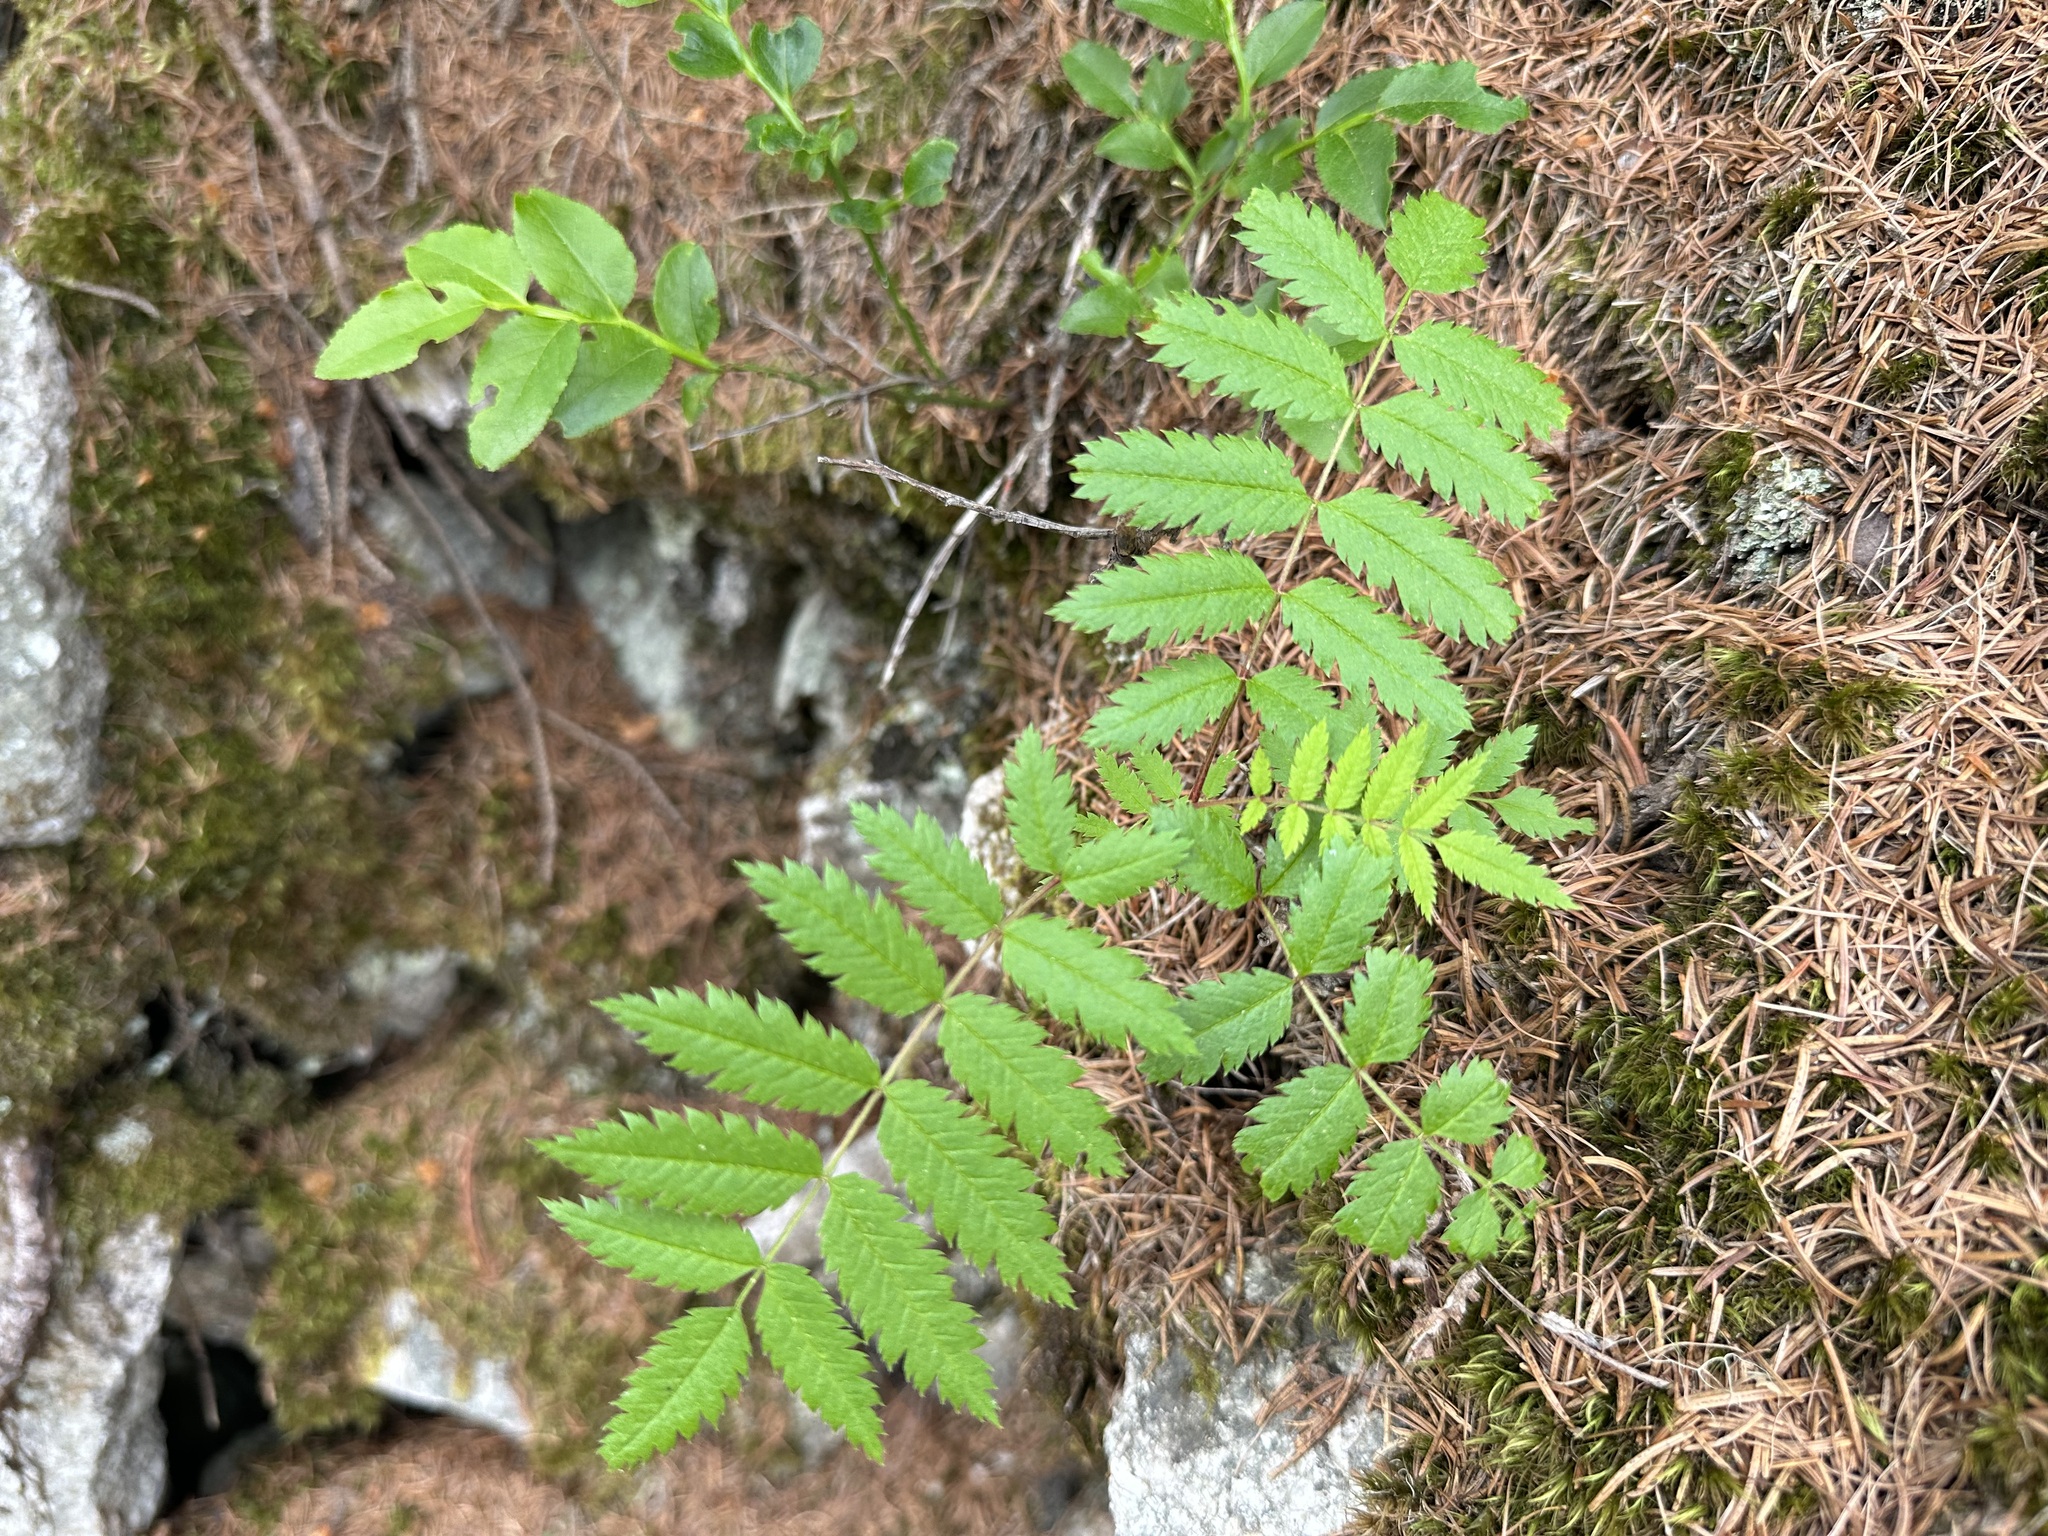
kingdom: Plantae
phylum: Tracheophyta
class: Magnoliopsida
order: Rosales
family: Rosaceae
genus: Sorbus
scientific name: Sorbus aucuparia
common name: Rowan
